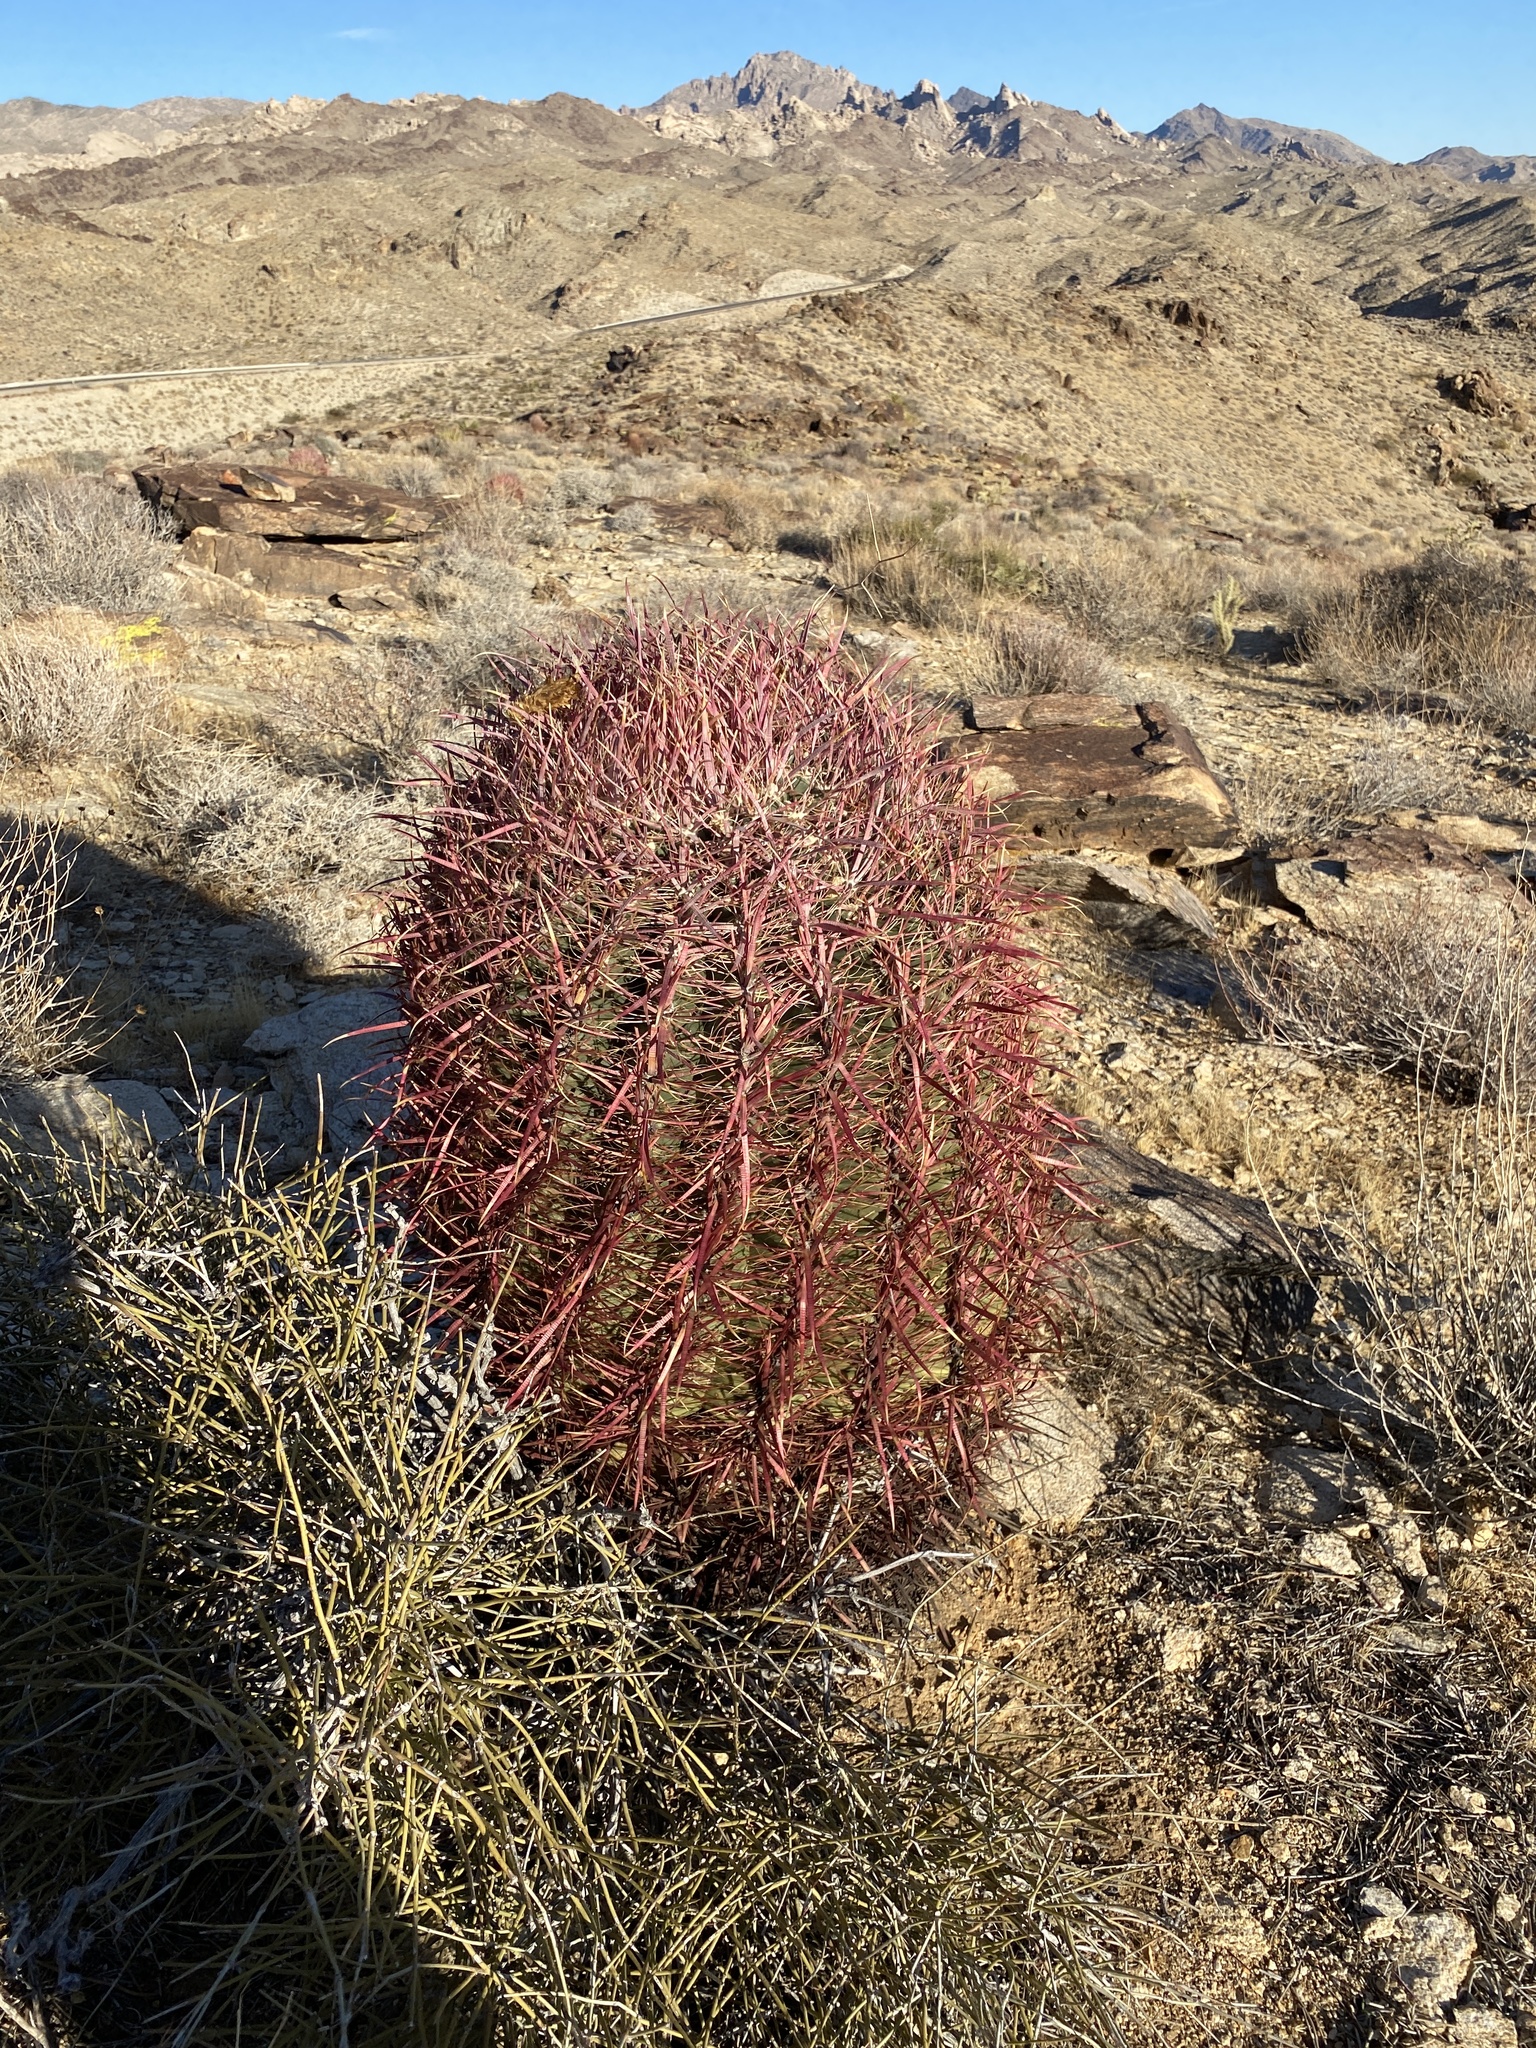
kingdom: Plantae
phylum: Tracheophyta
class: Magnoliopsida
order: Caryophyllales
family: Cactaceae
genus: Ferocactus
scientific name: Ferocactus cylindraceus
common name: California barrel cactus
